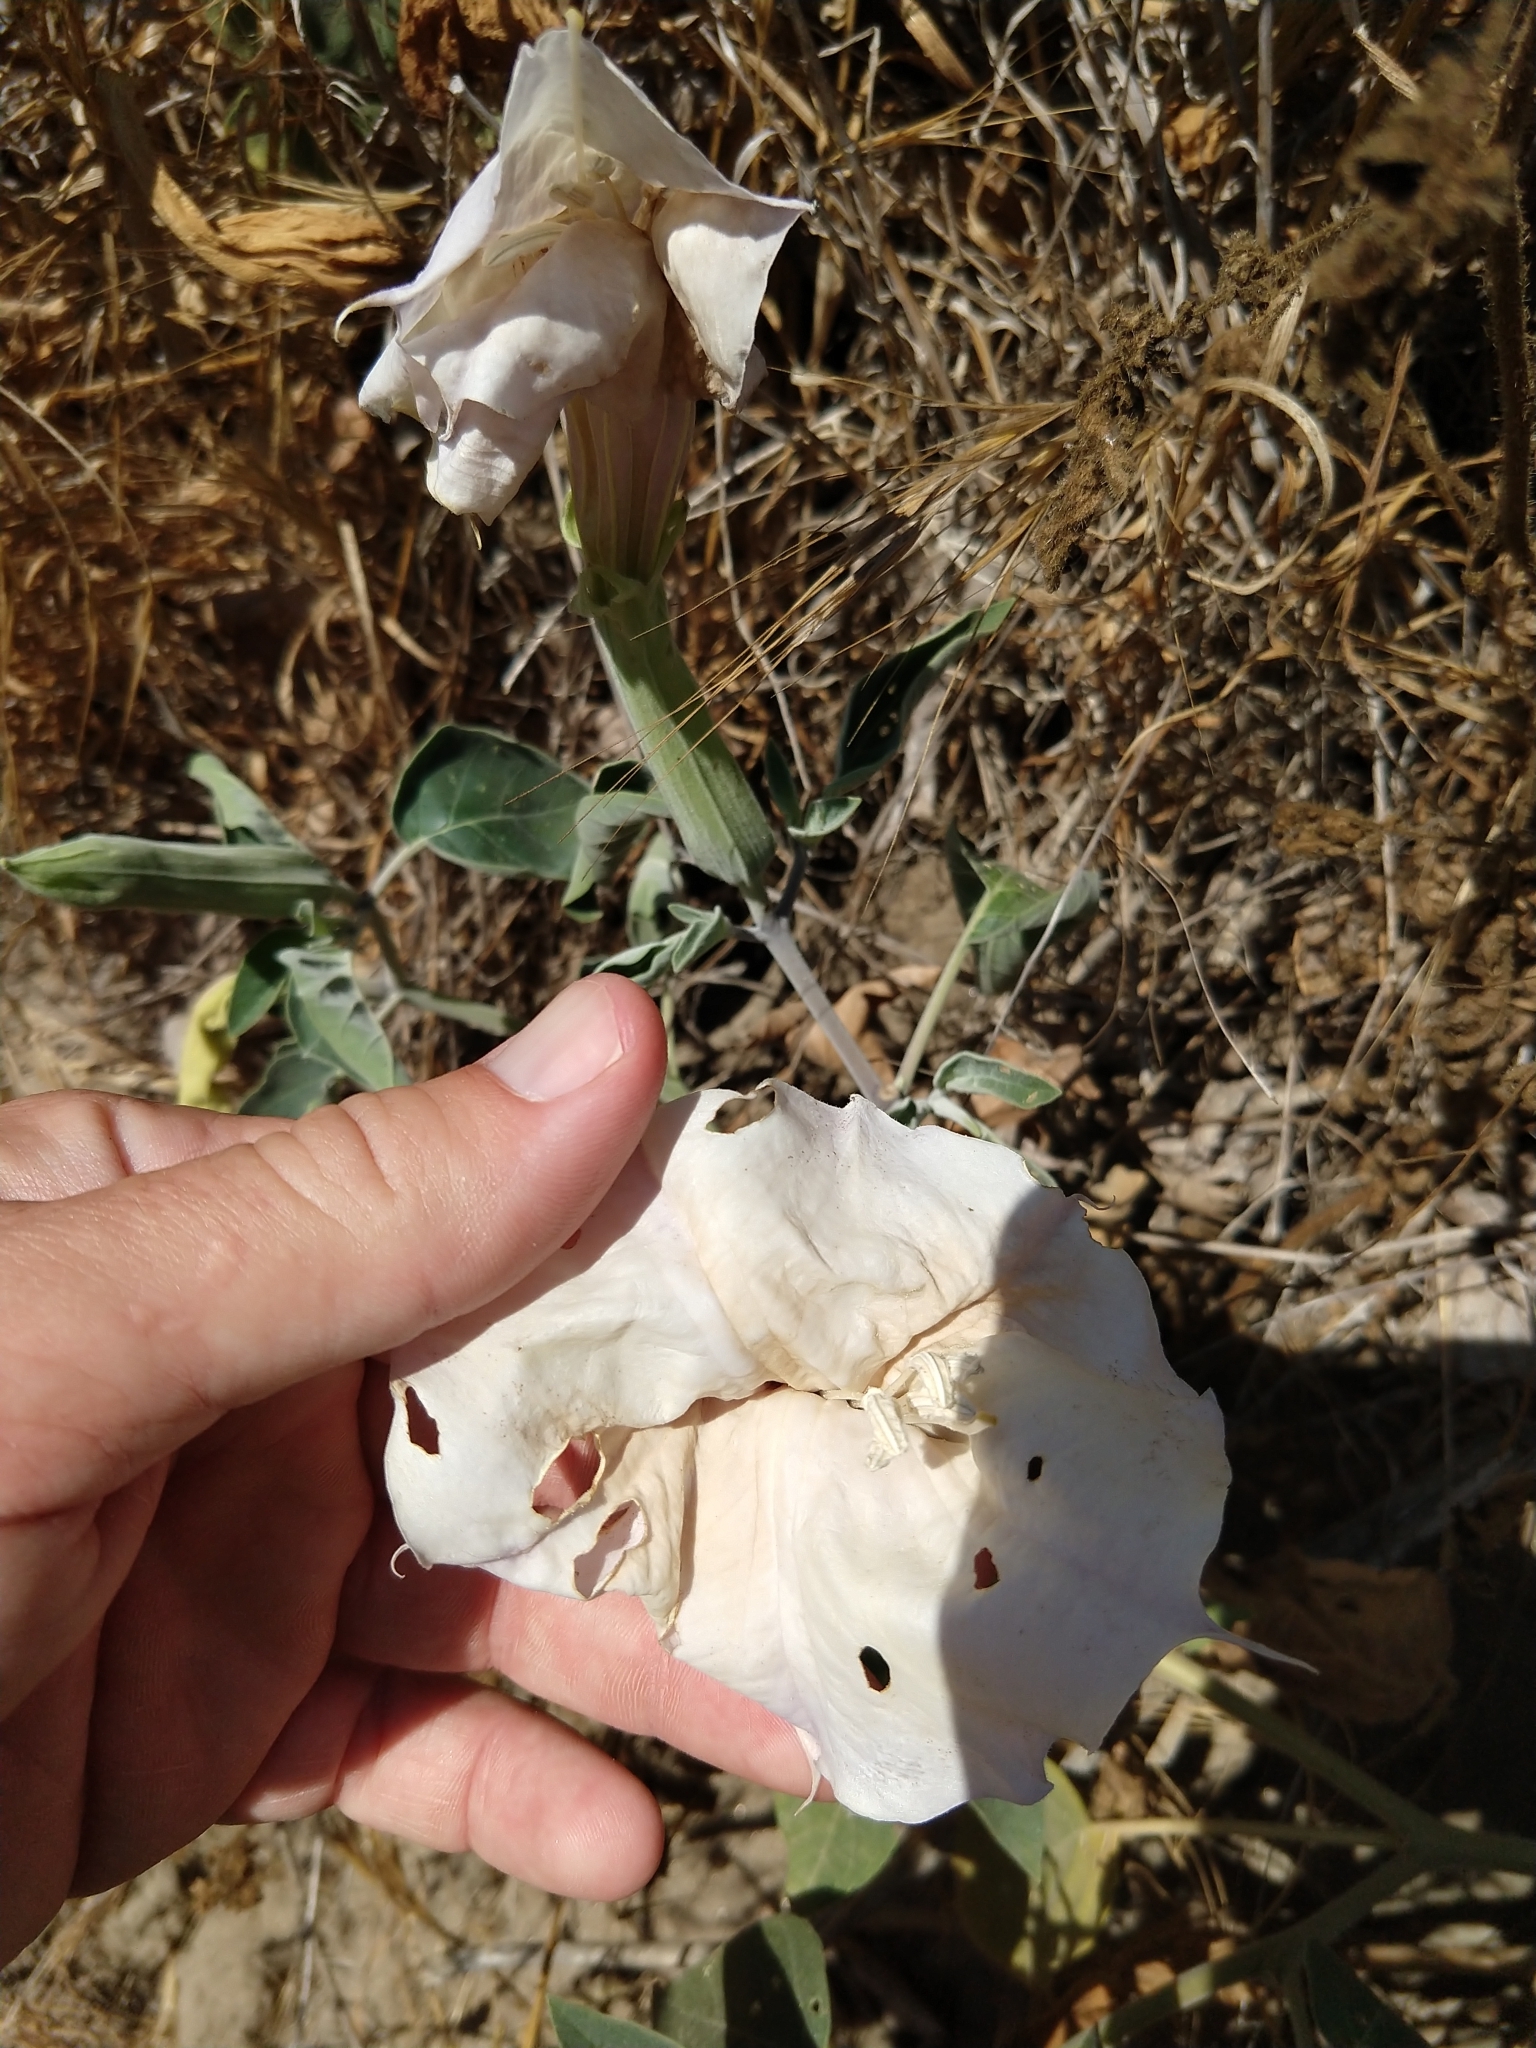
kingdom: Plantae
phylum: Tracheophyta
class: Magnoliopsida
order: Solanales
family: Solanaceae
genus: Datura
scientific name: Datura wrightii
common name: Sacred thorn-apple
